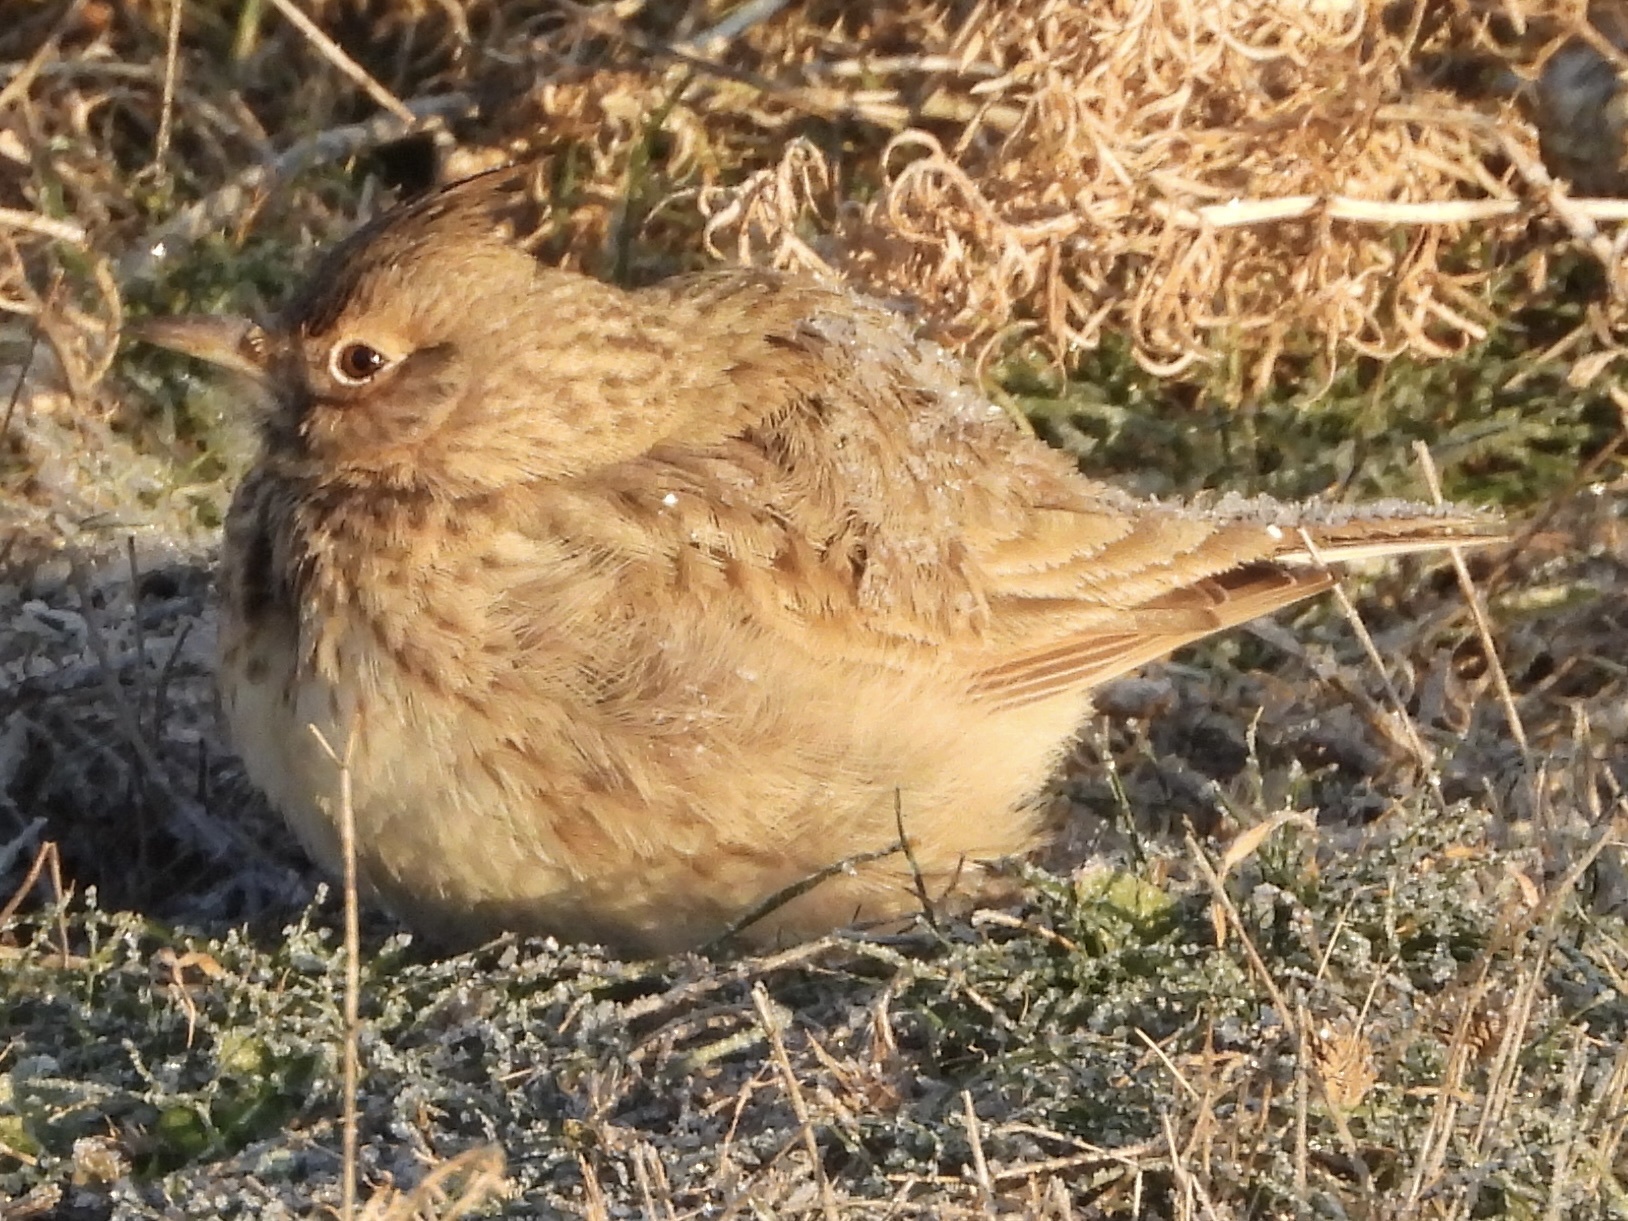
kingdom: Animalia
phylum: Chordata
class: Aves
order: Passeriformes
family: Alaudidae
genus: Galerida
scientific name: Galerida cristata
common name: Crested lark
